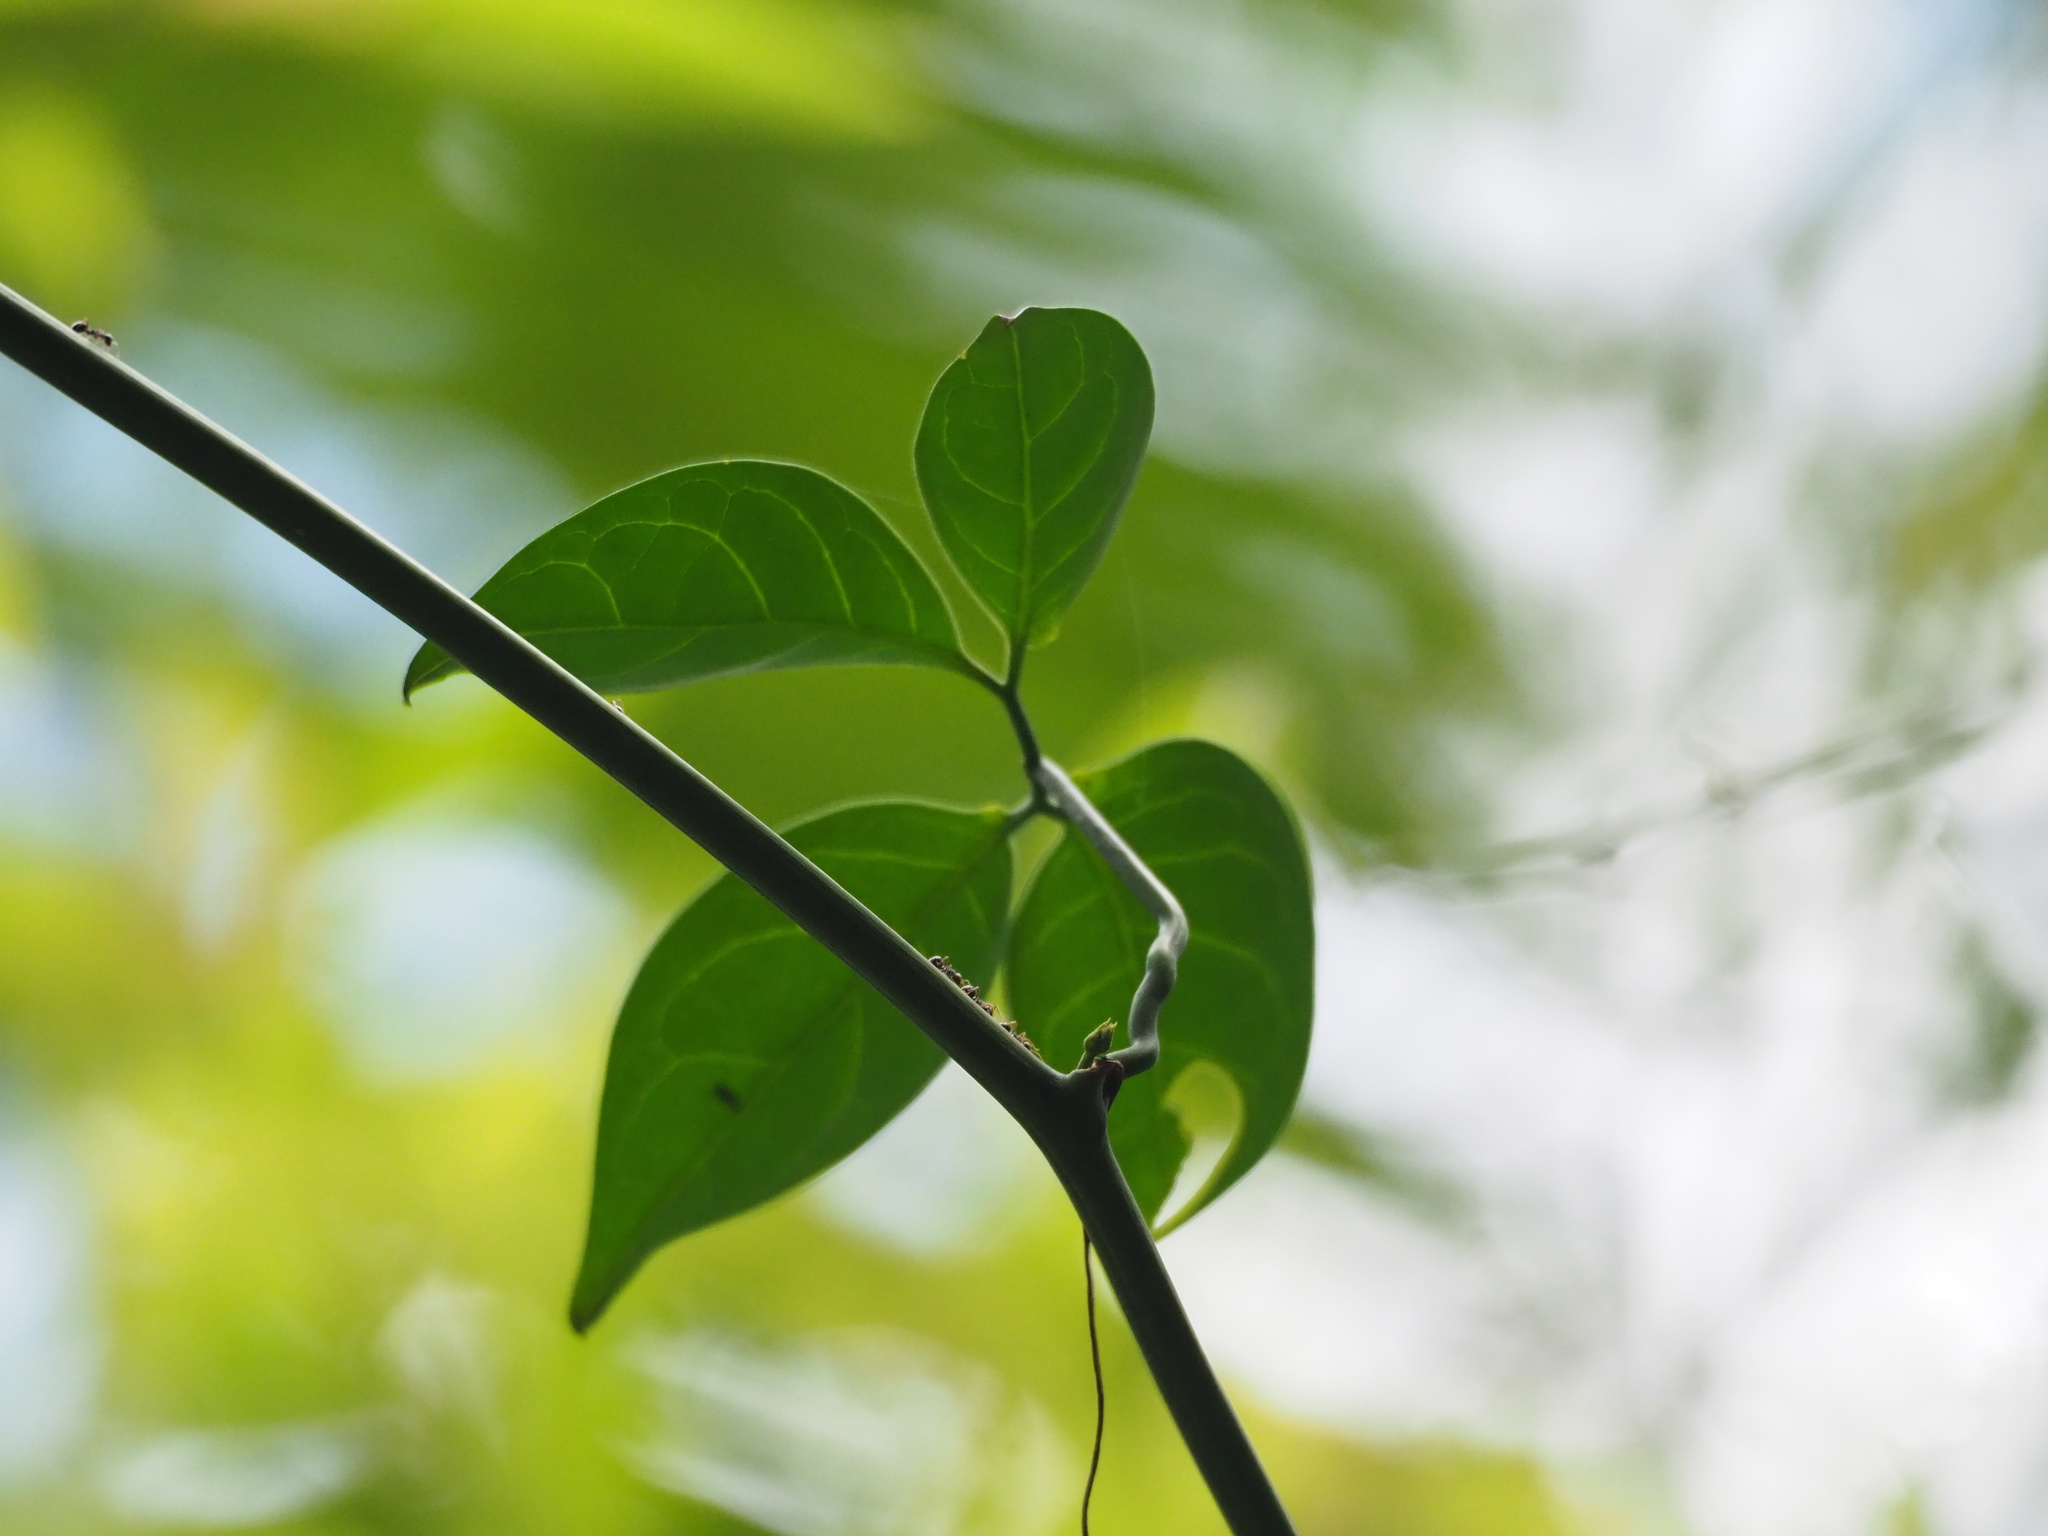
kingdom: Plantae
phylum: Tracheophyta
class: Magnoliopsida
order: Cucurbitales
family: Cucurbitaceae
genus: Neoalsomitra
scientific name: Neoalsomitra clavigera
